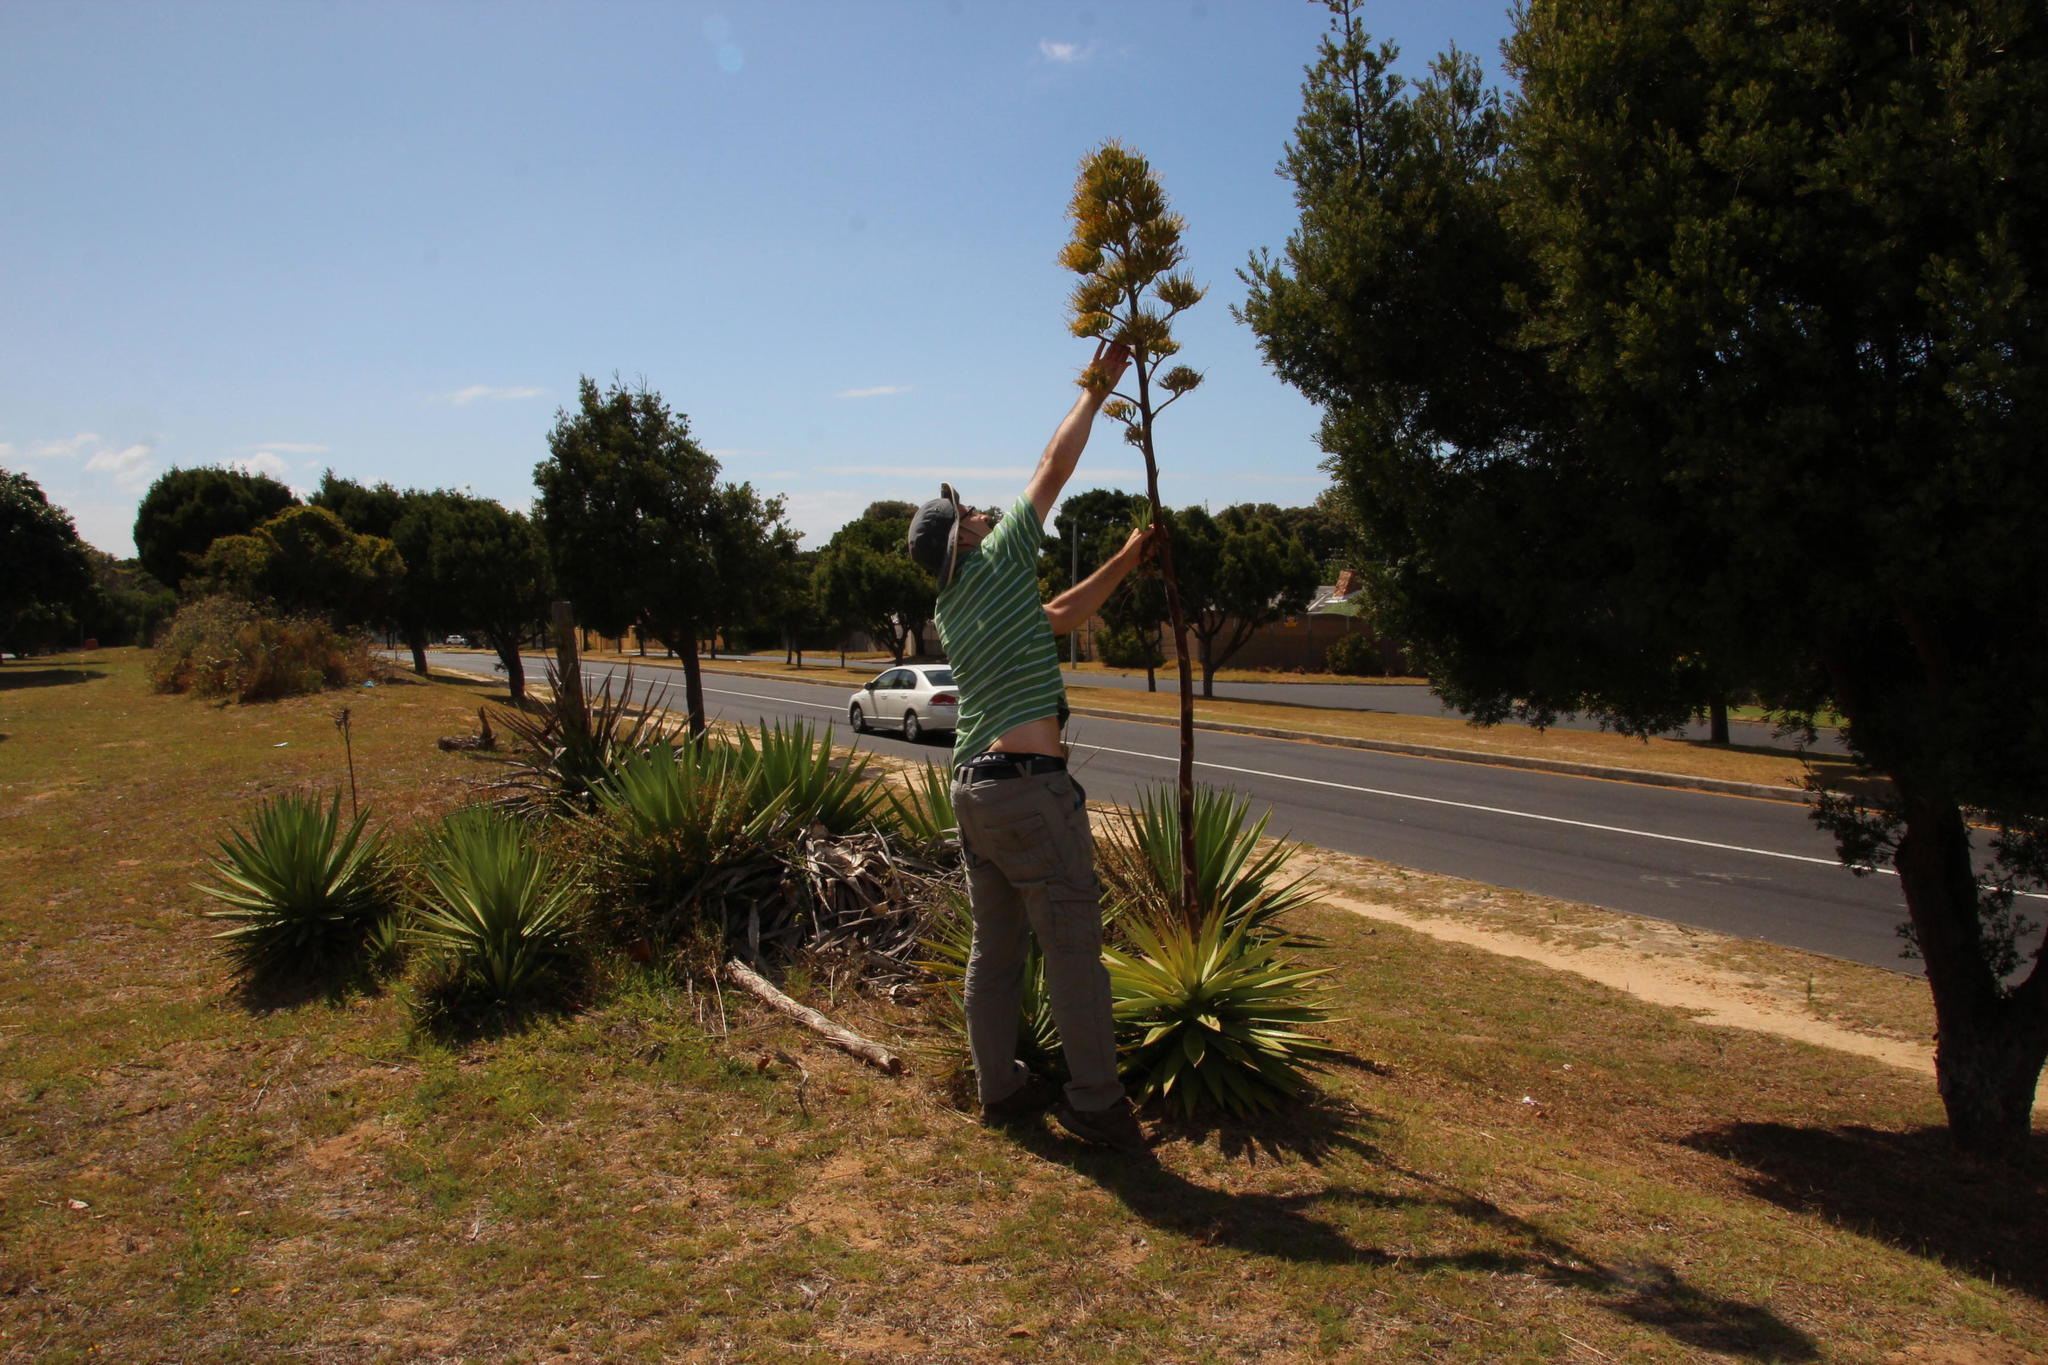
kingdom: Plantae
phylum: Tracheophyta
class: Liliopsida
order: Asparagales
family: Asparagaceae
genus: Agave
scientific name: Agave angustifolia
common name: Mescal agave
